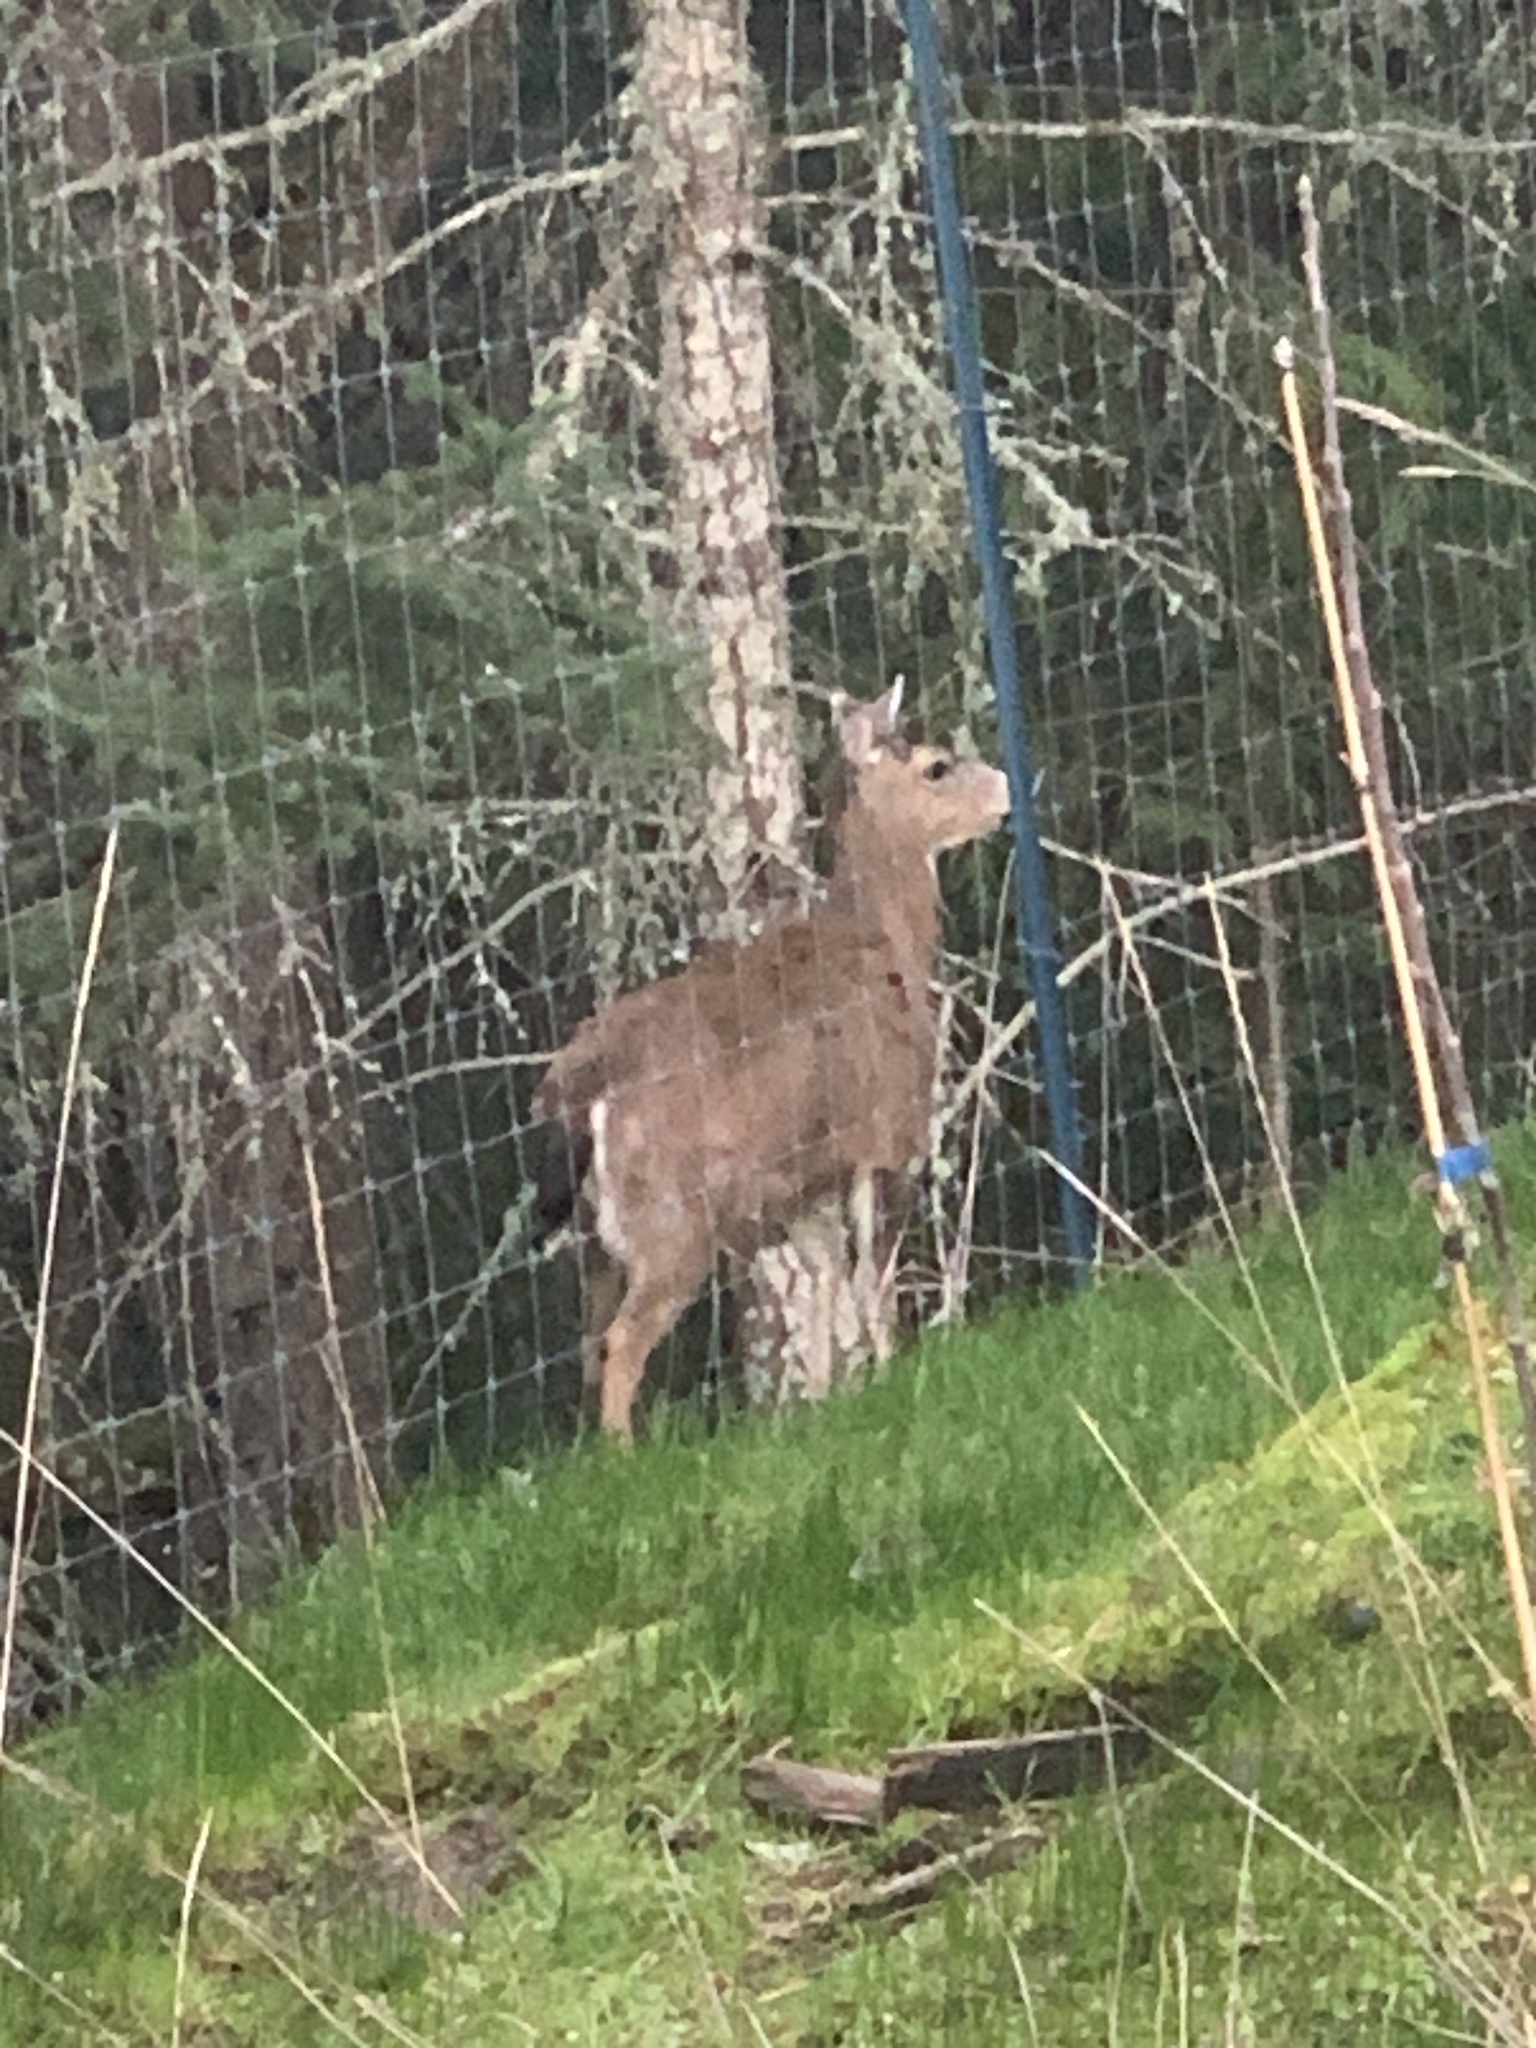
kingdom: Animalia
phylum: Chordata
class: Mammalia
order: Artiodactyla
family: Cervidae
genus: Odocoileus
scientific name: Odocoileus hemionus
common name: Mule deer
